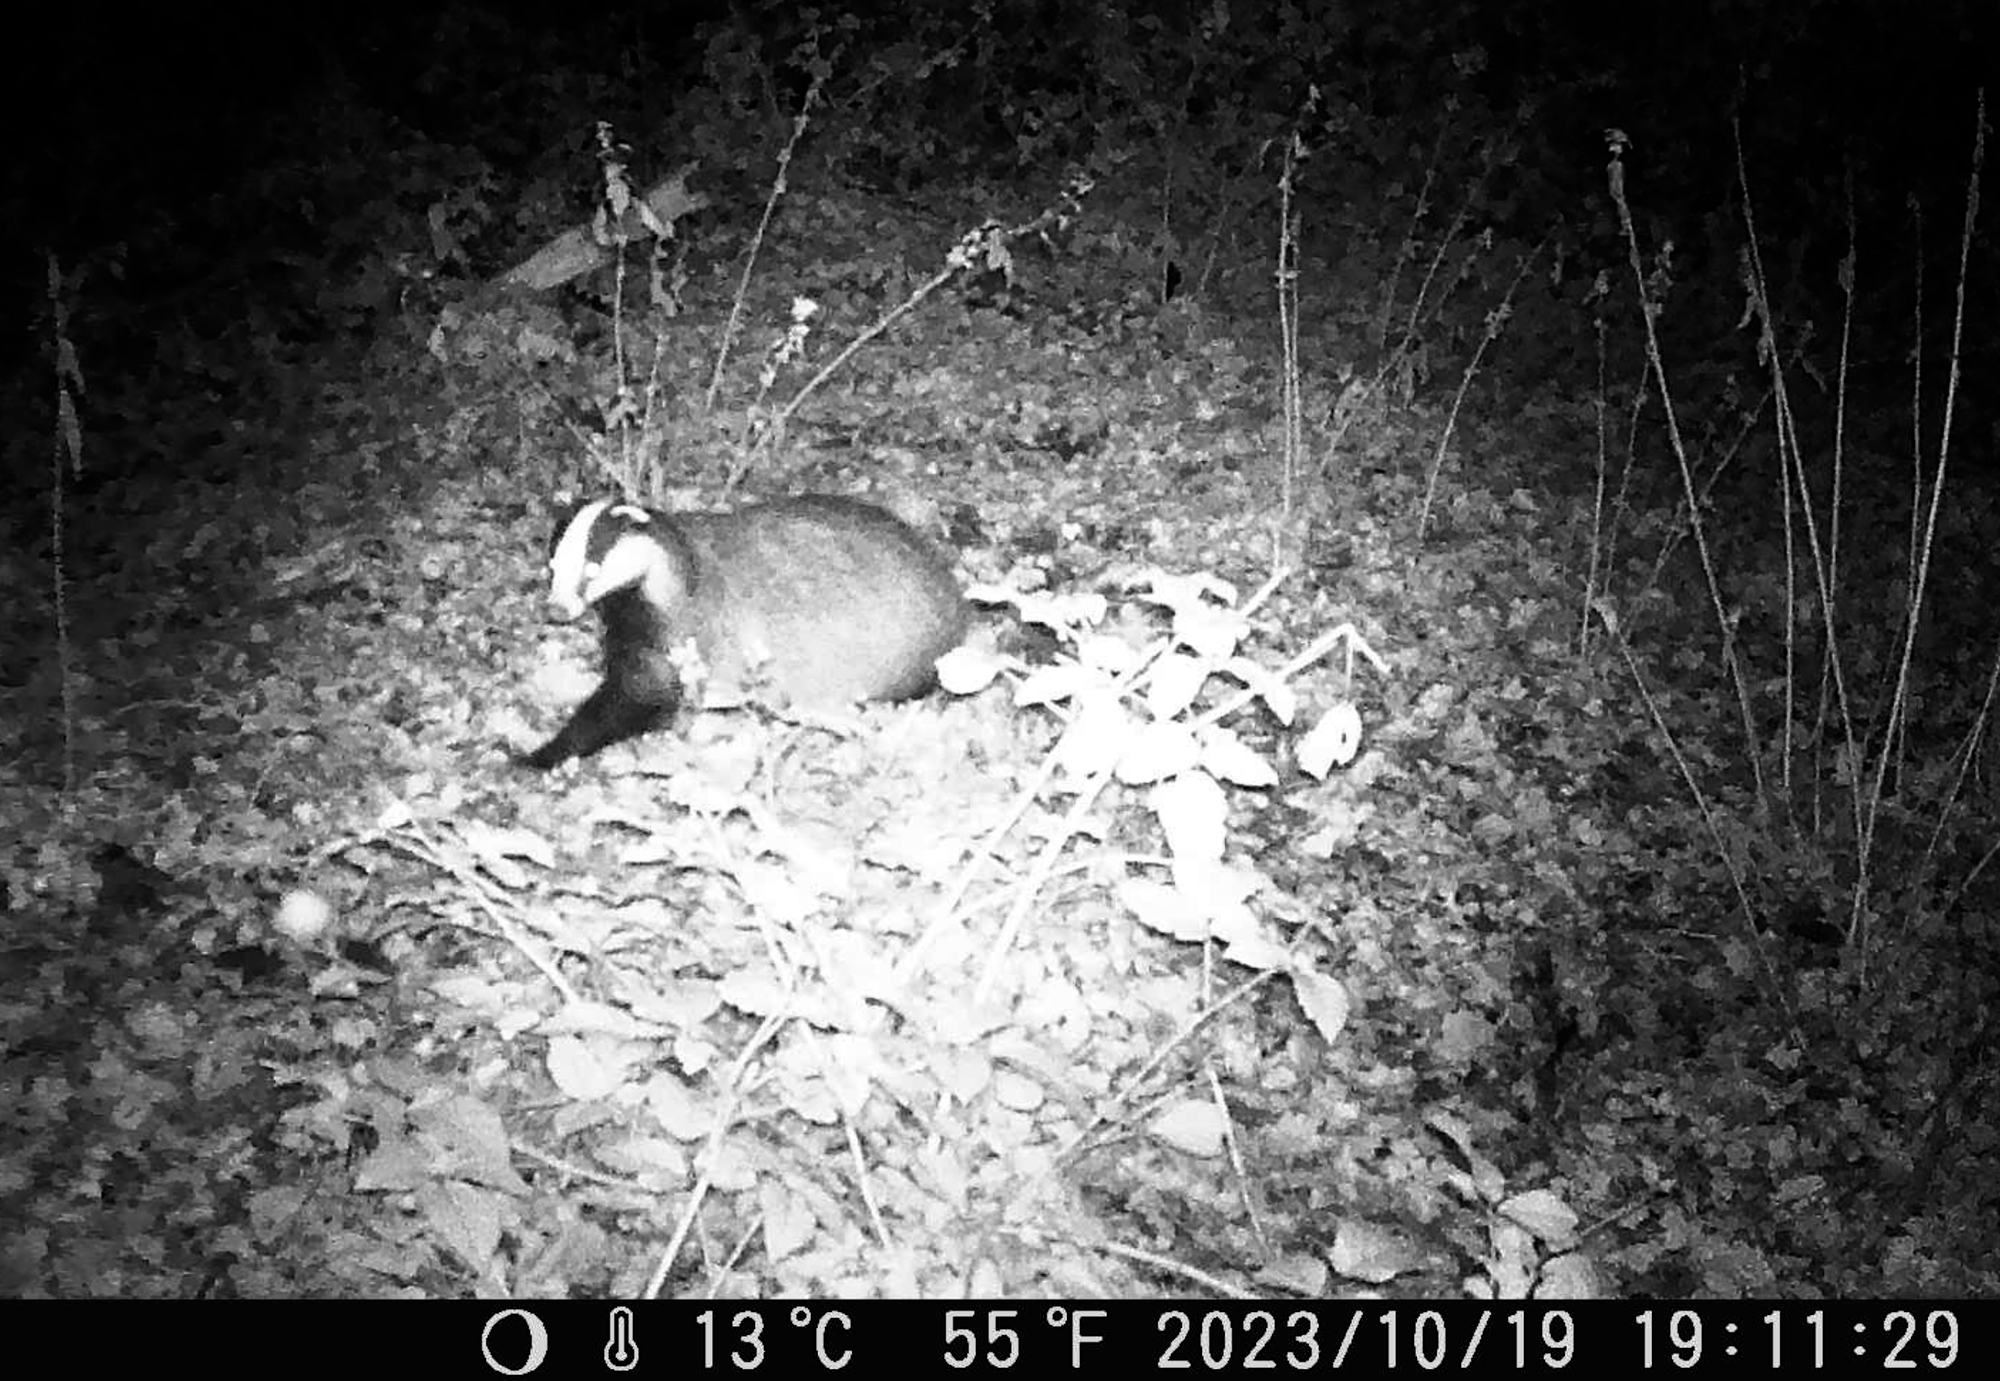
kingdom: Animalia
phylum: Chordata
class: Mammalia
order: Carnivora
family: Mustelidae
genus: Meles
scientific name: Meles meles
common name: Eurasian badger
